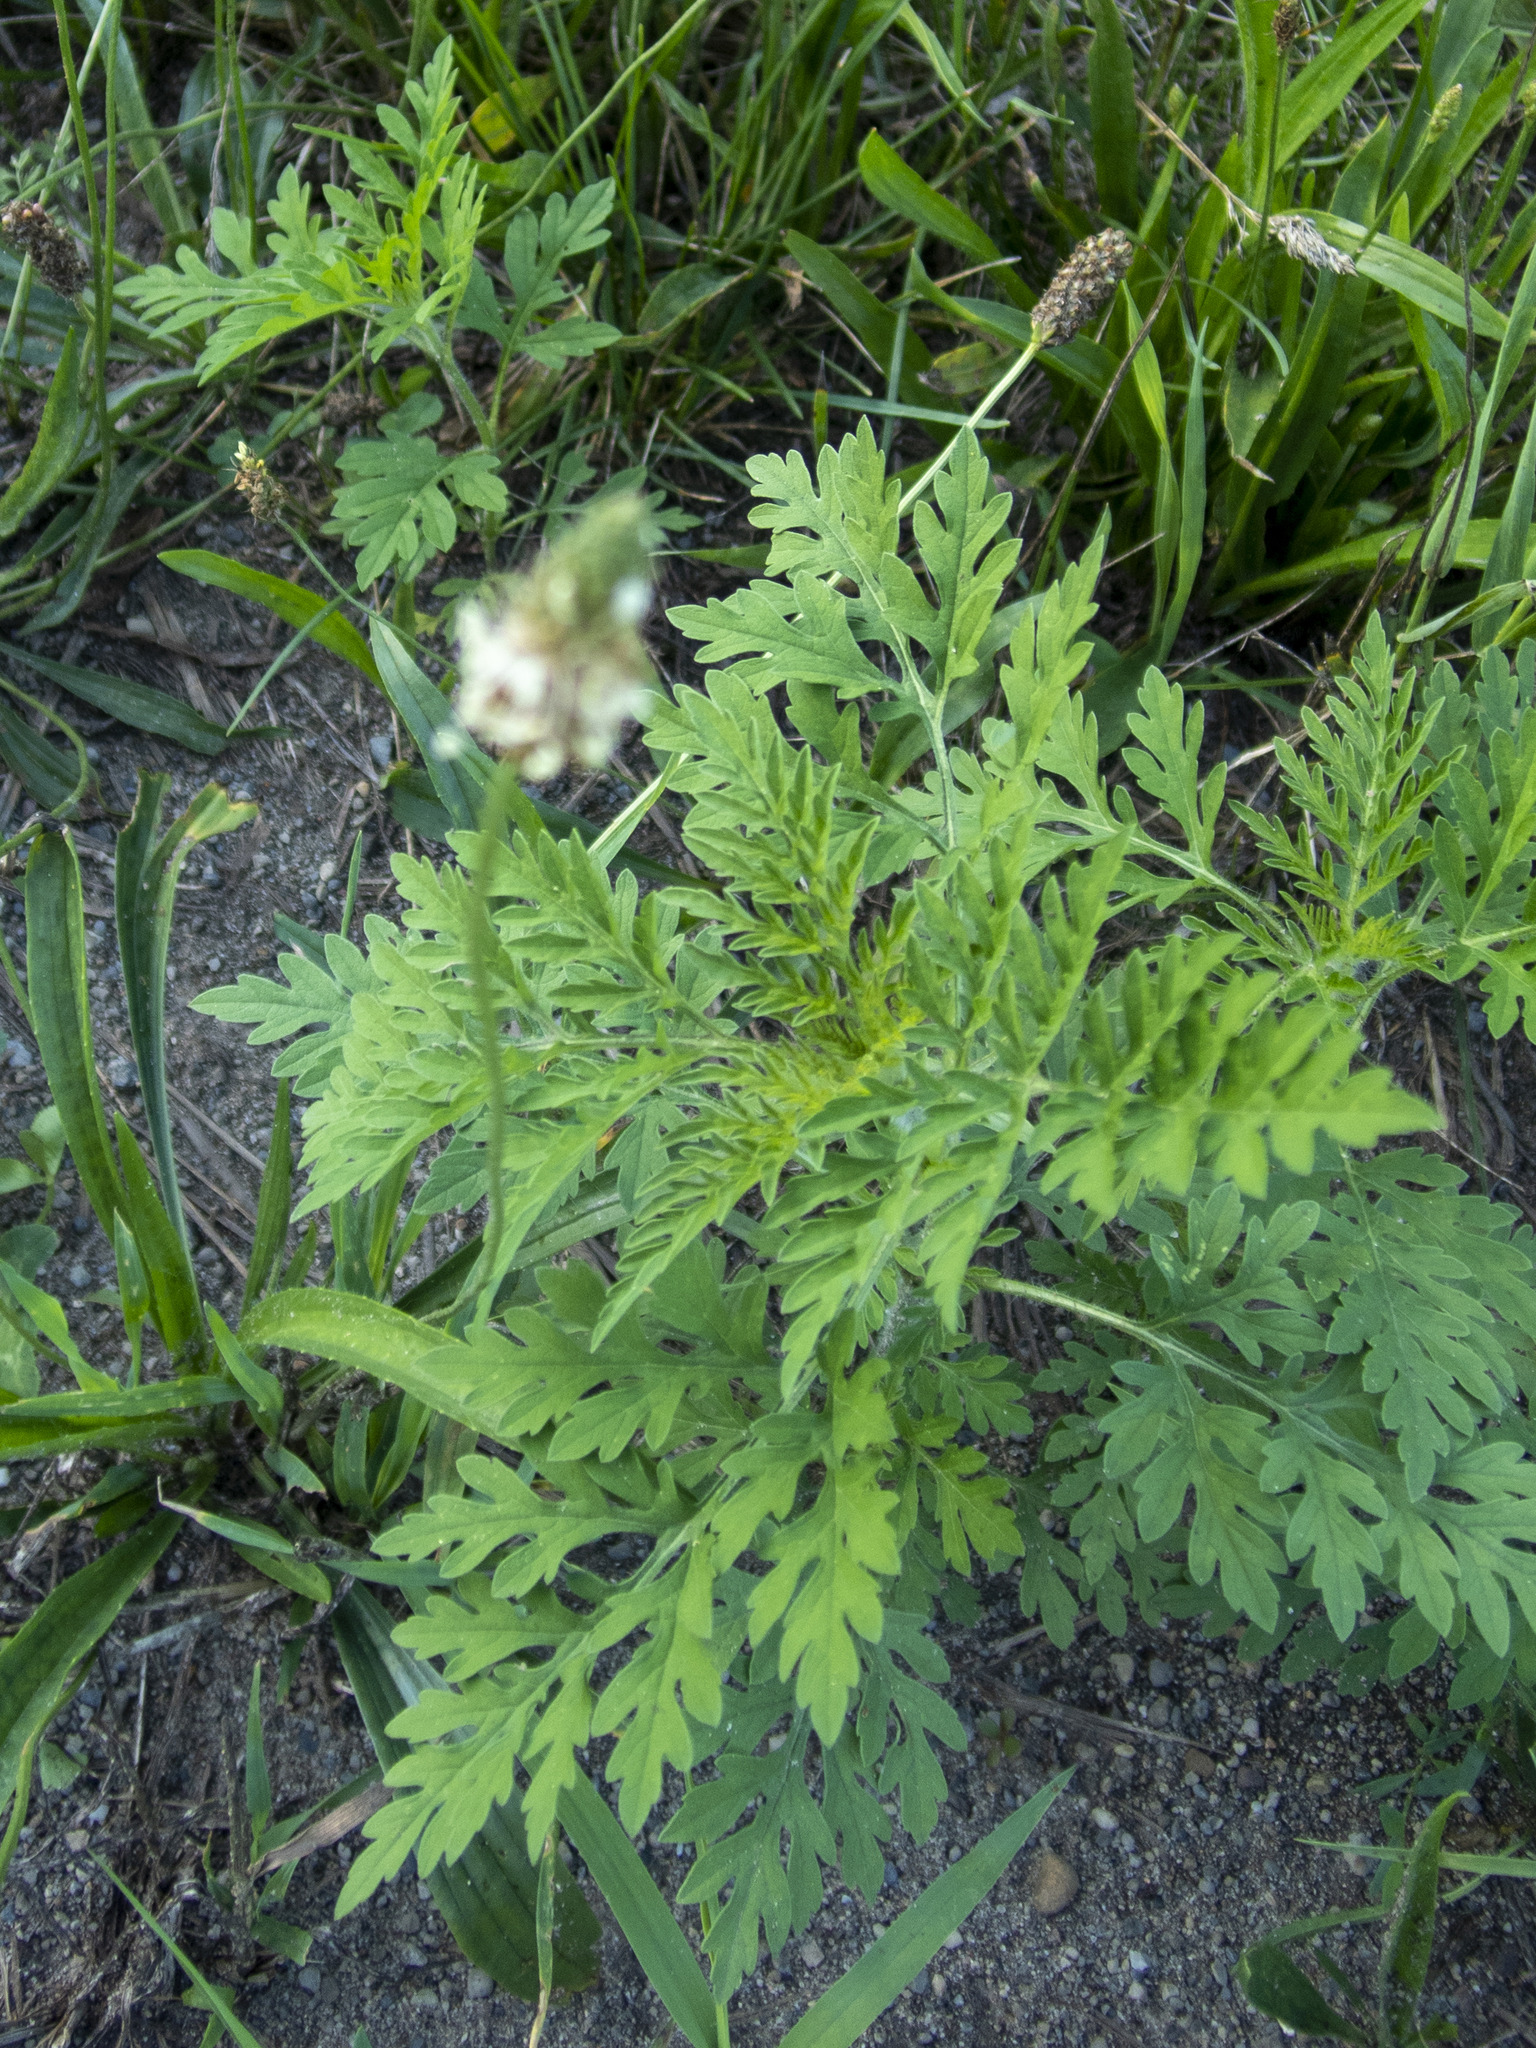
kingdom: Plantae
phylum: Tracheophyta
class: Magnoliopsida
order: Asterales
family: Asteraceae
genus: Ambrosia
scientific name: Ambrosia artemisiifolia
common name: Annual ragweed
